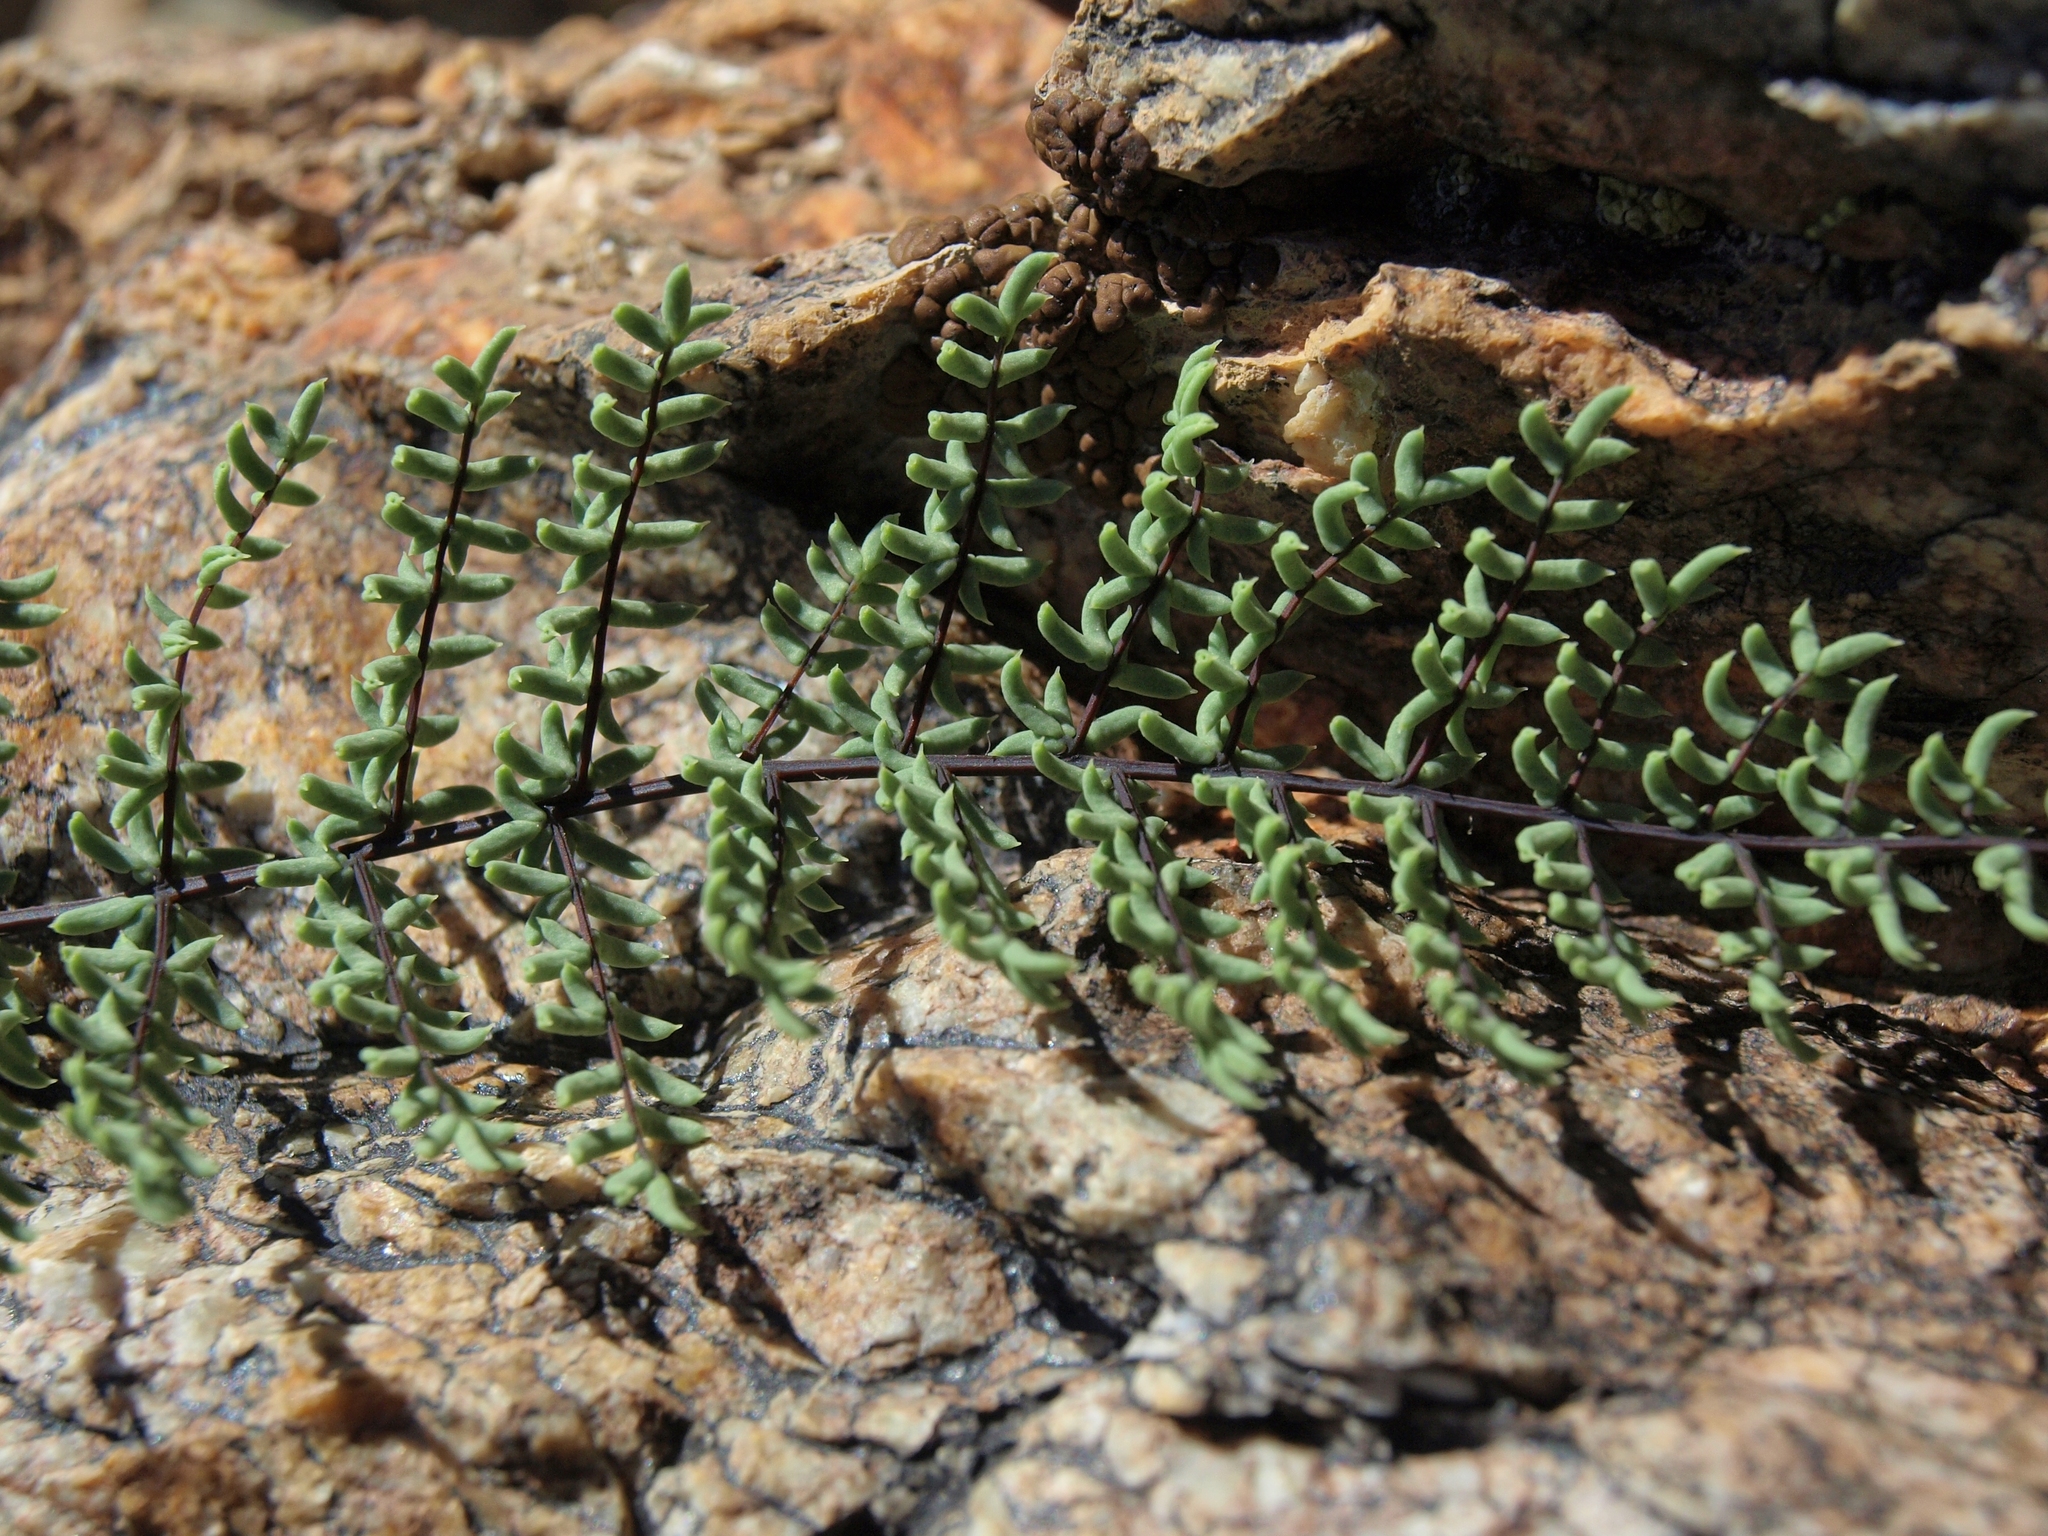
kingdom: Plantae
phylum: Tracheophyta
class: Polypodiopsida
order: Polypodiales
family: Pteridaceae
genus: Pellaea
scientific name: Pellaea mucronata
